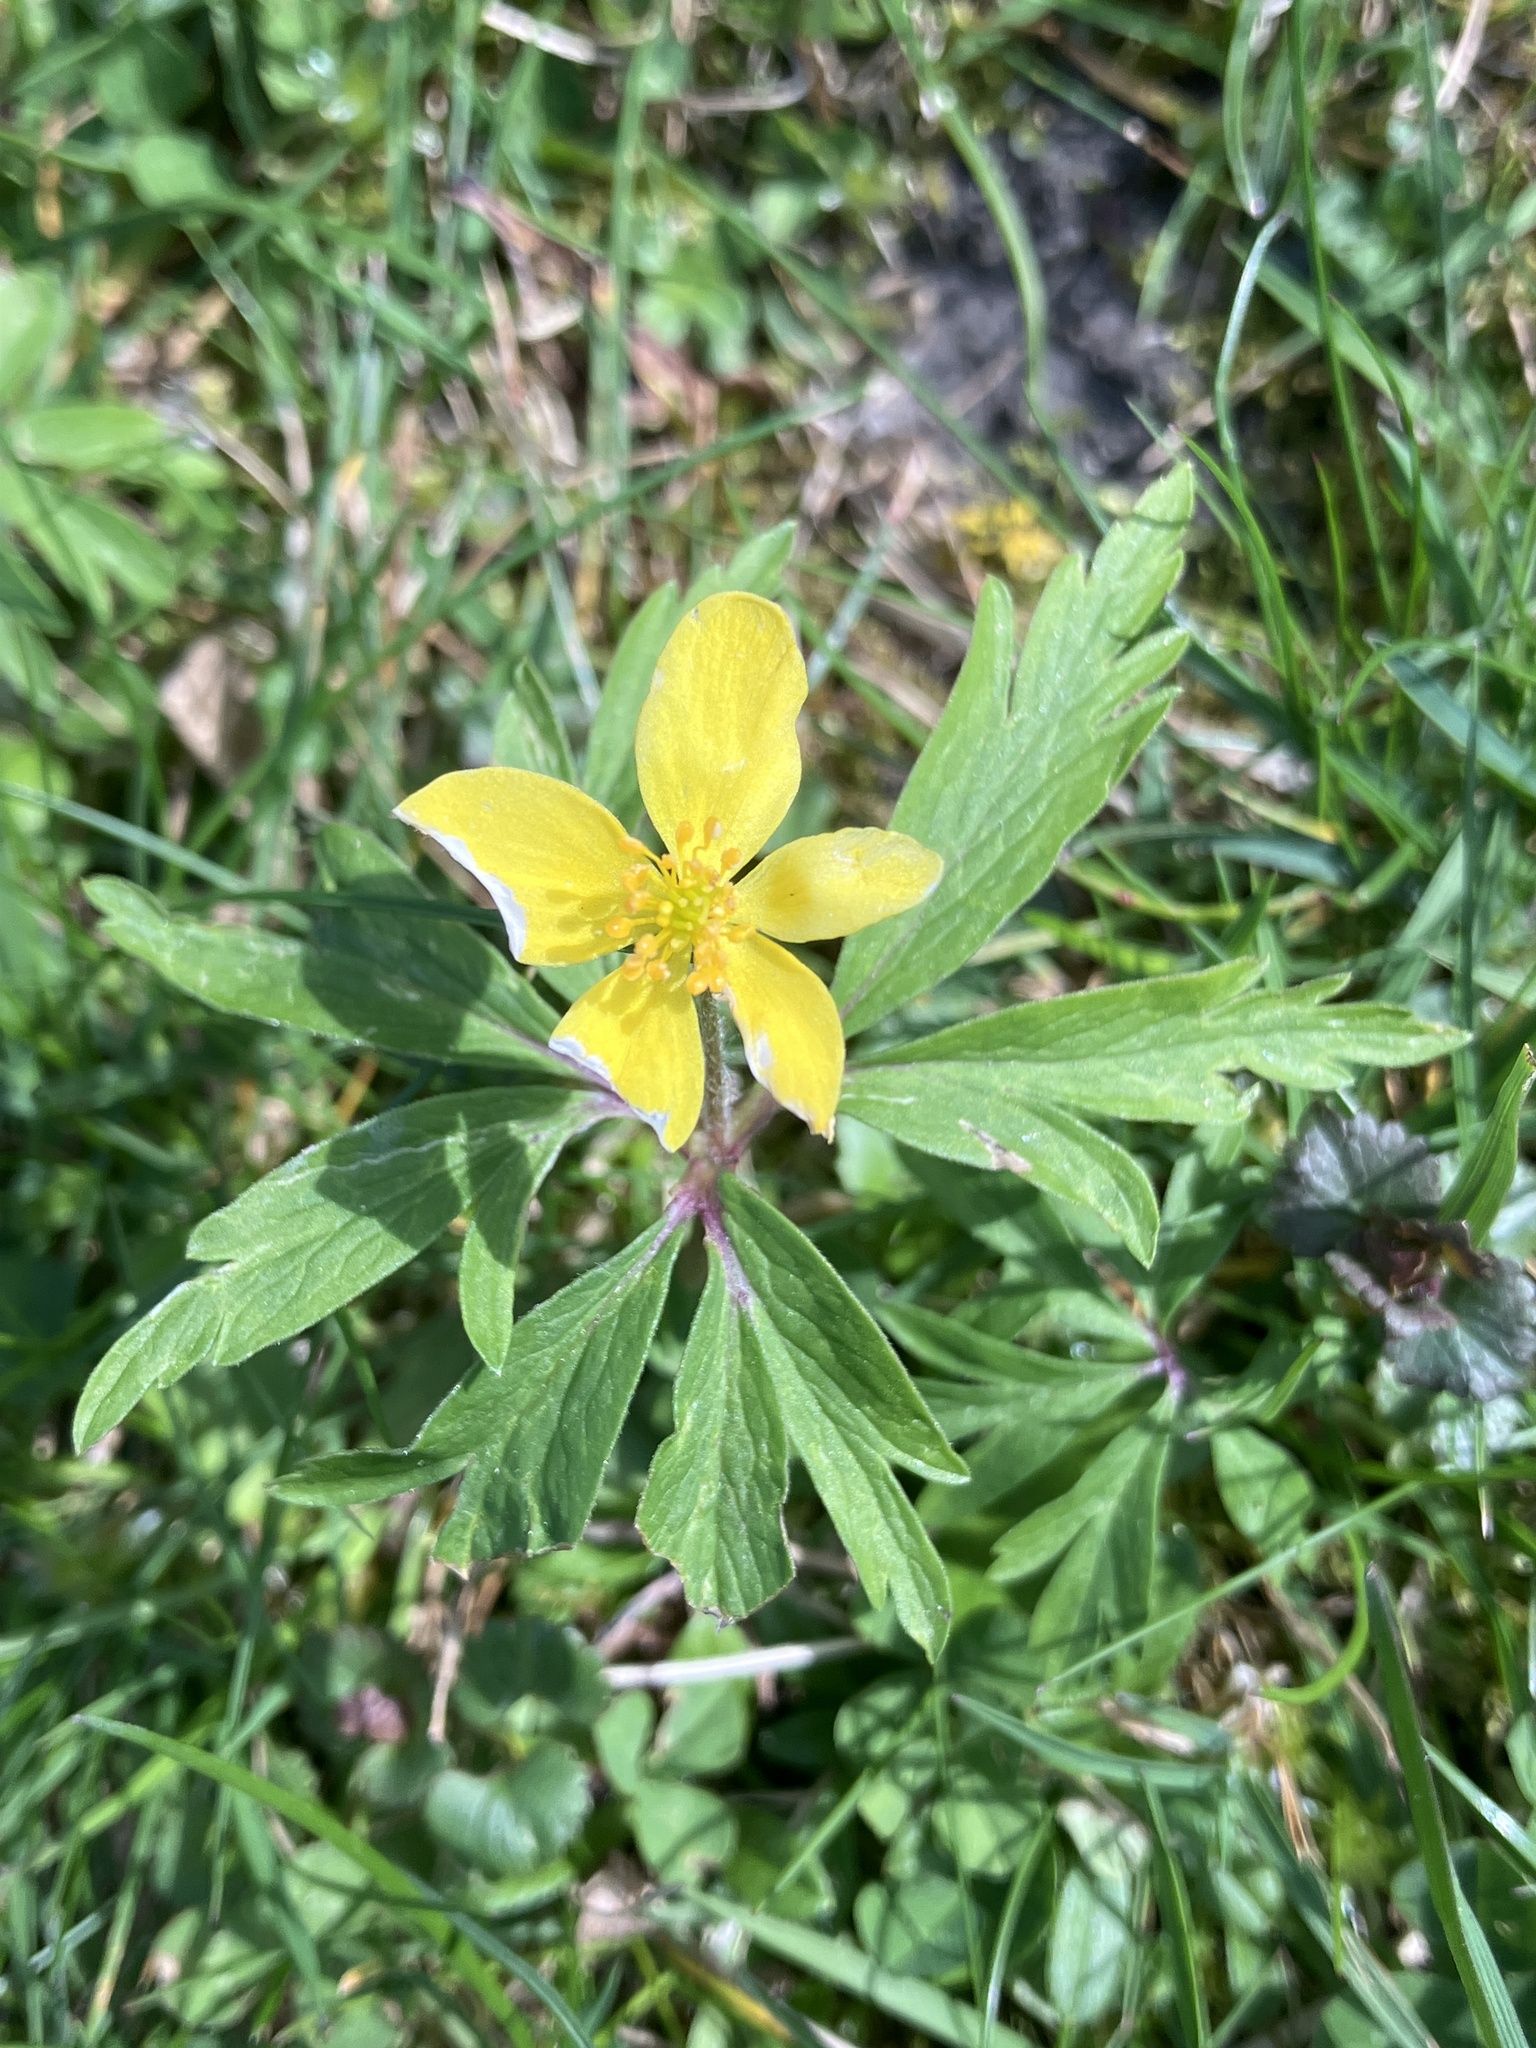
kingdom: Plantae
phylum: Tracheophyta
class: Magnoliopsida
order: Ranunculales
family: Ranunculaceae
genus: Anemone
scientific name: Anemone ranunculoides
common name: Yellow anemone
